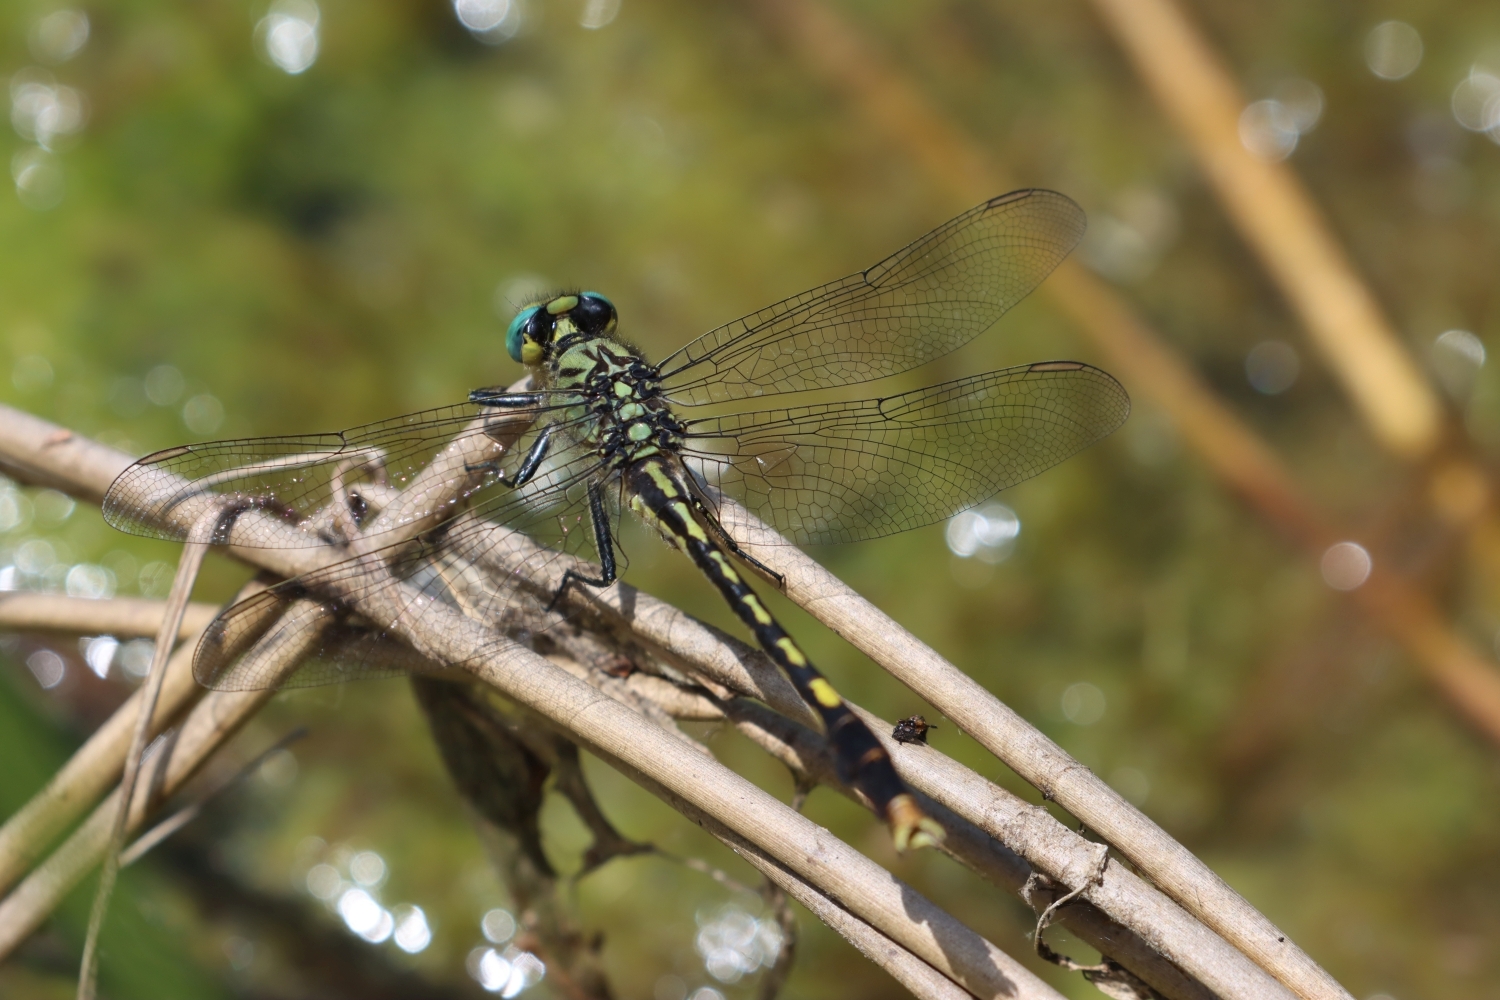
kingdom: Animalia
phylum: Arthropoda
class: Insecta
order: Odonata
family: Gomphidae
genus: Arigomphus
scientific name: Arigomphus villosipes
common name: Unicorn clubtail
